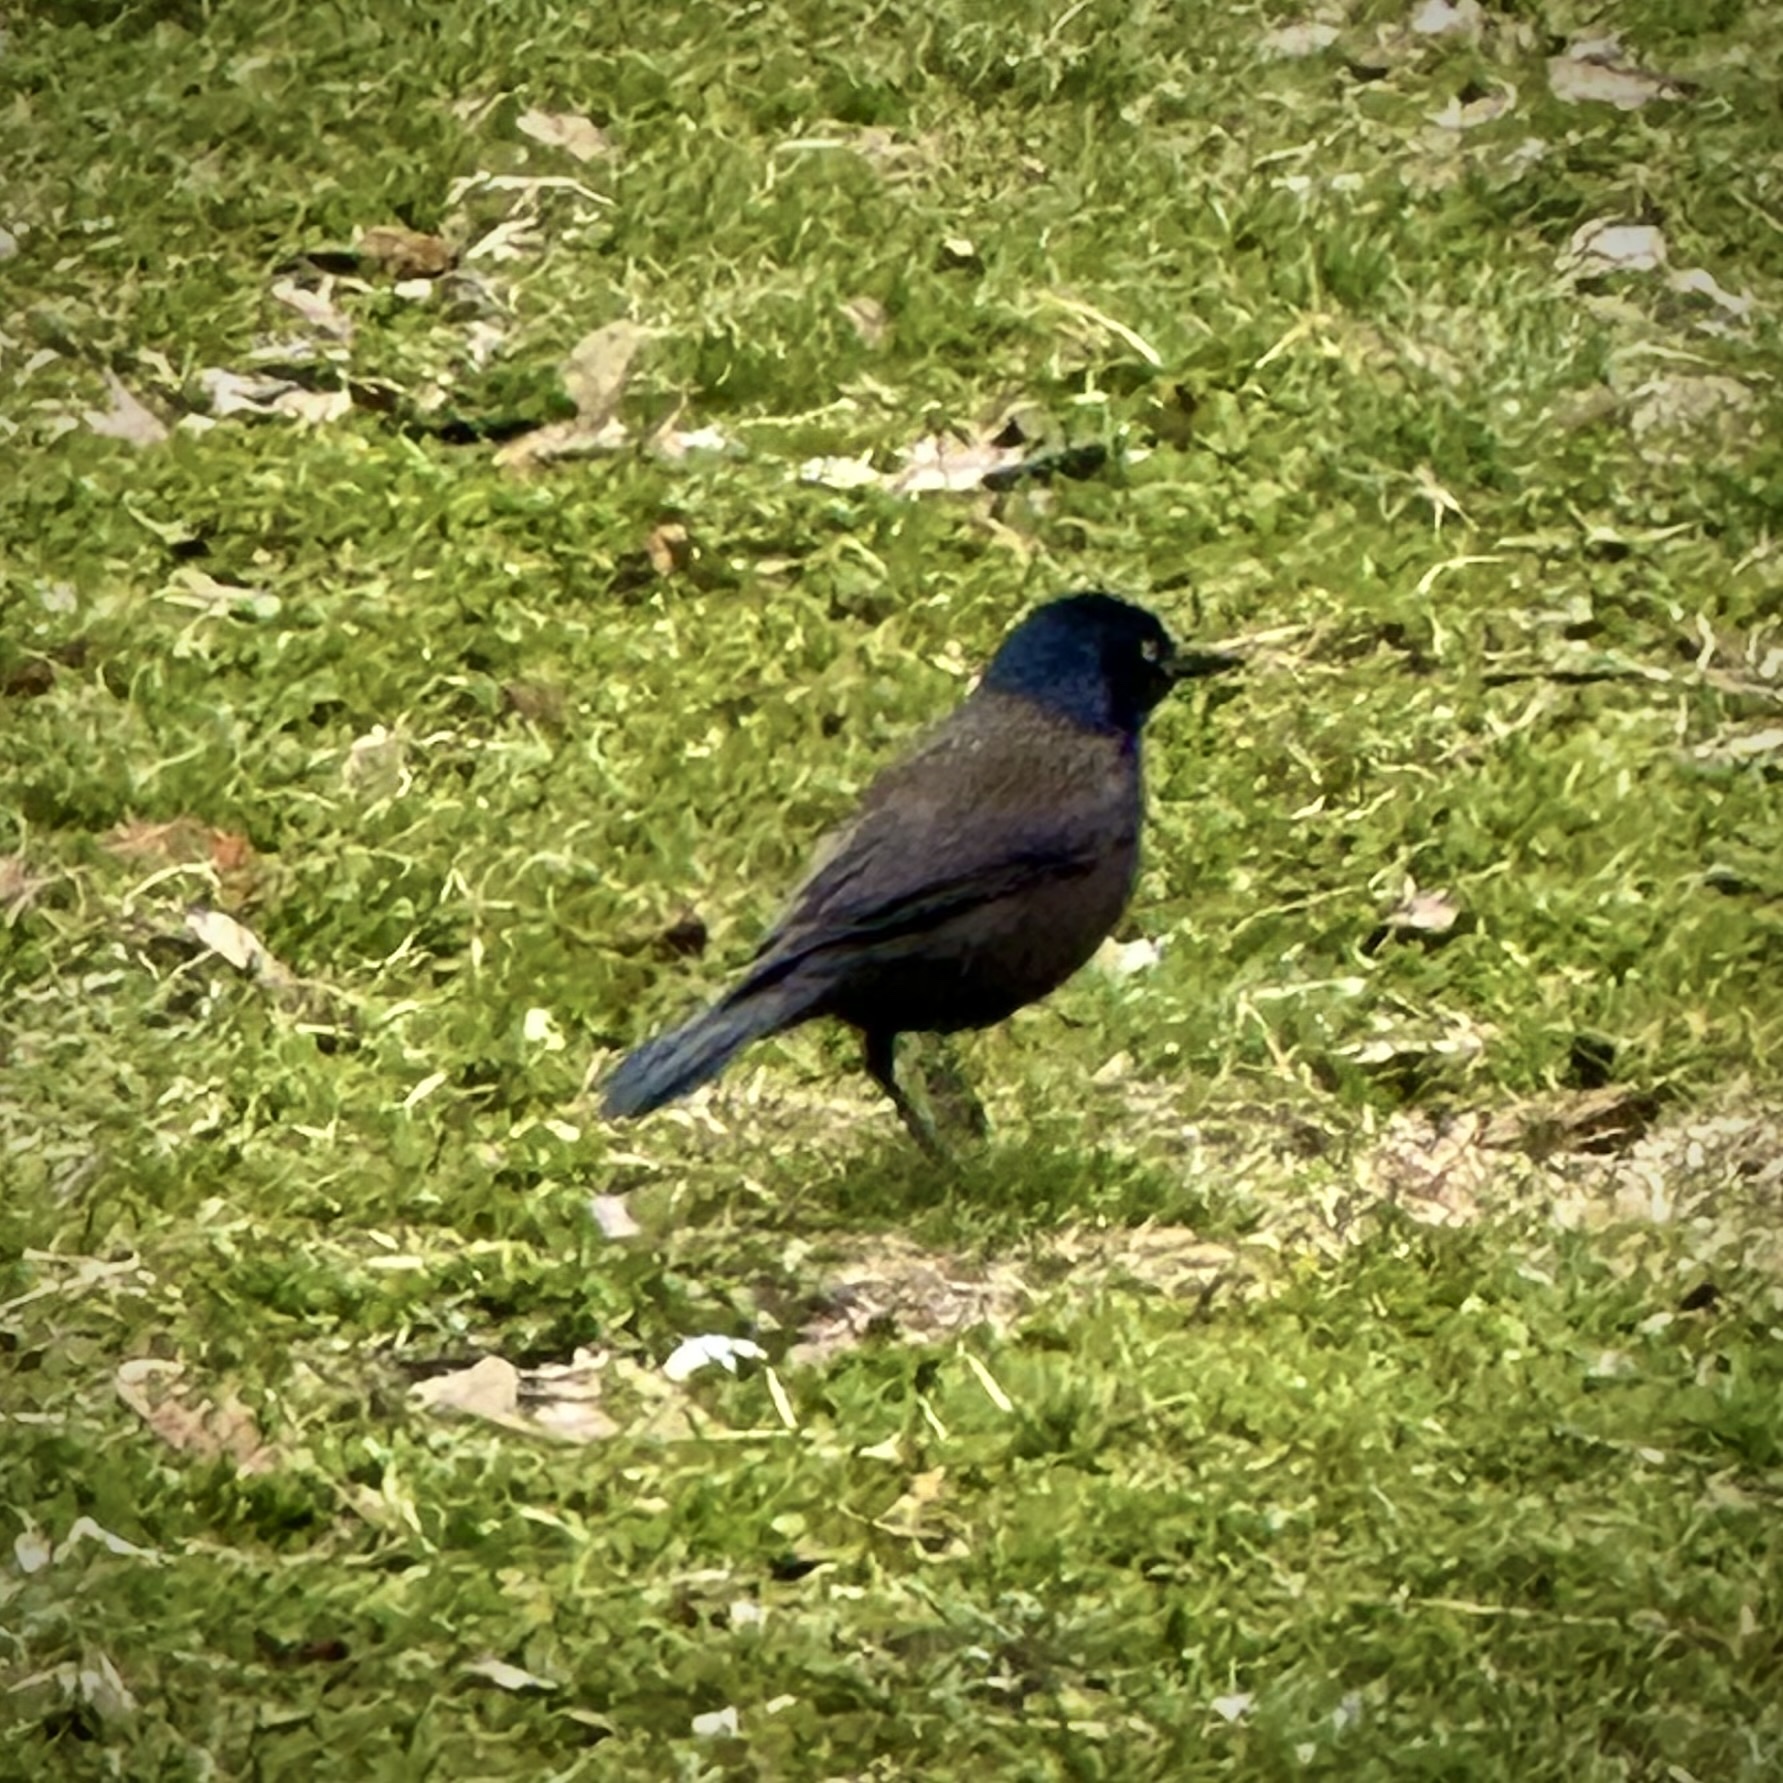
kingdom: Animalia
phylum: Chordata
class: Aves
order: Passeriformes
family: Icteridae
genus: Quiscalus
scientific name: Quiscalus quiscula
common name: Common grackle
